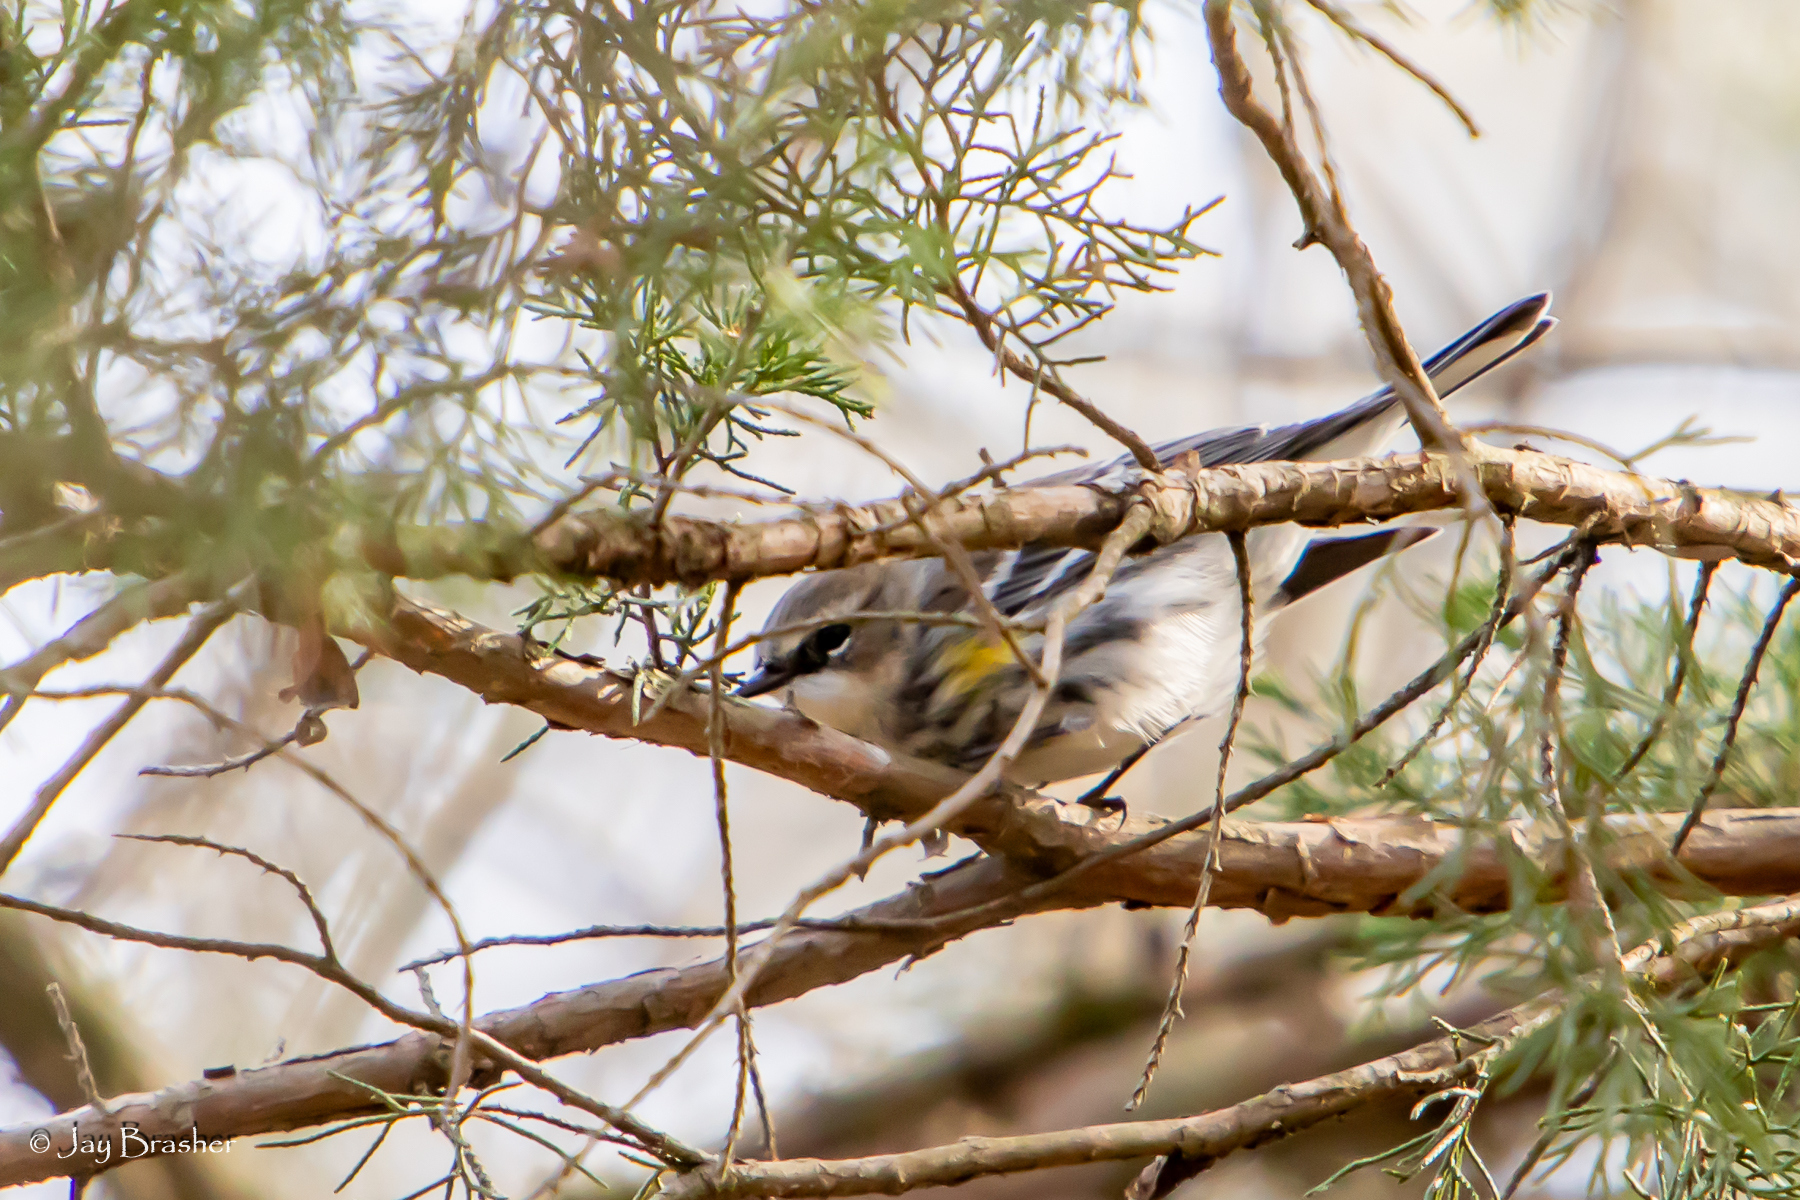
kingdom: Animalia
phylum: Chordata
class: Aves
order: Passeriformes
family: Parulidae
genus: Setophaga
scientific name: Setophaga coronata
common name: Myrtle warbler
